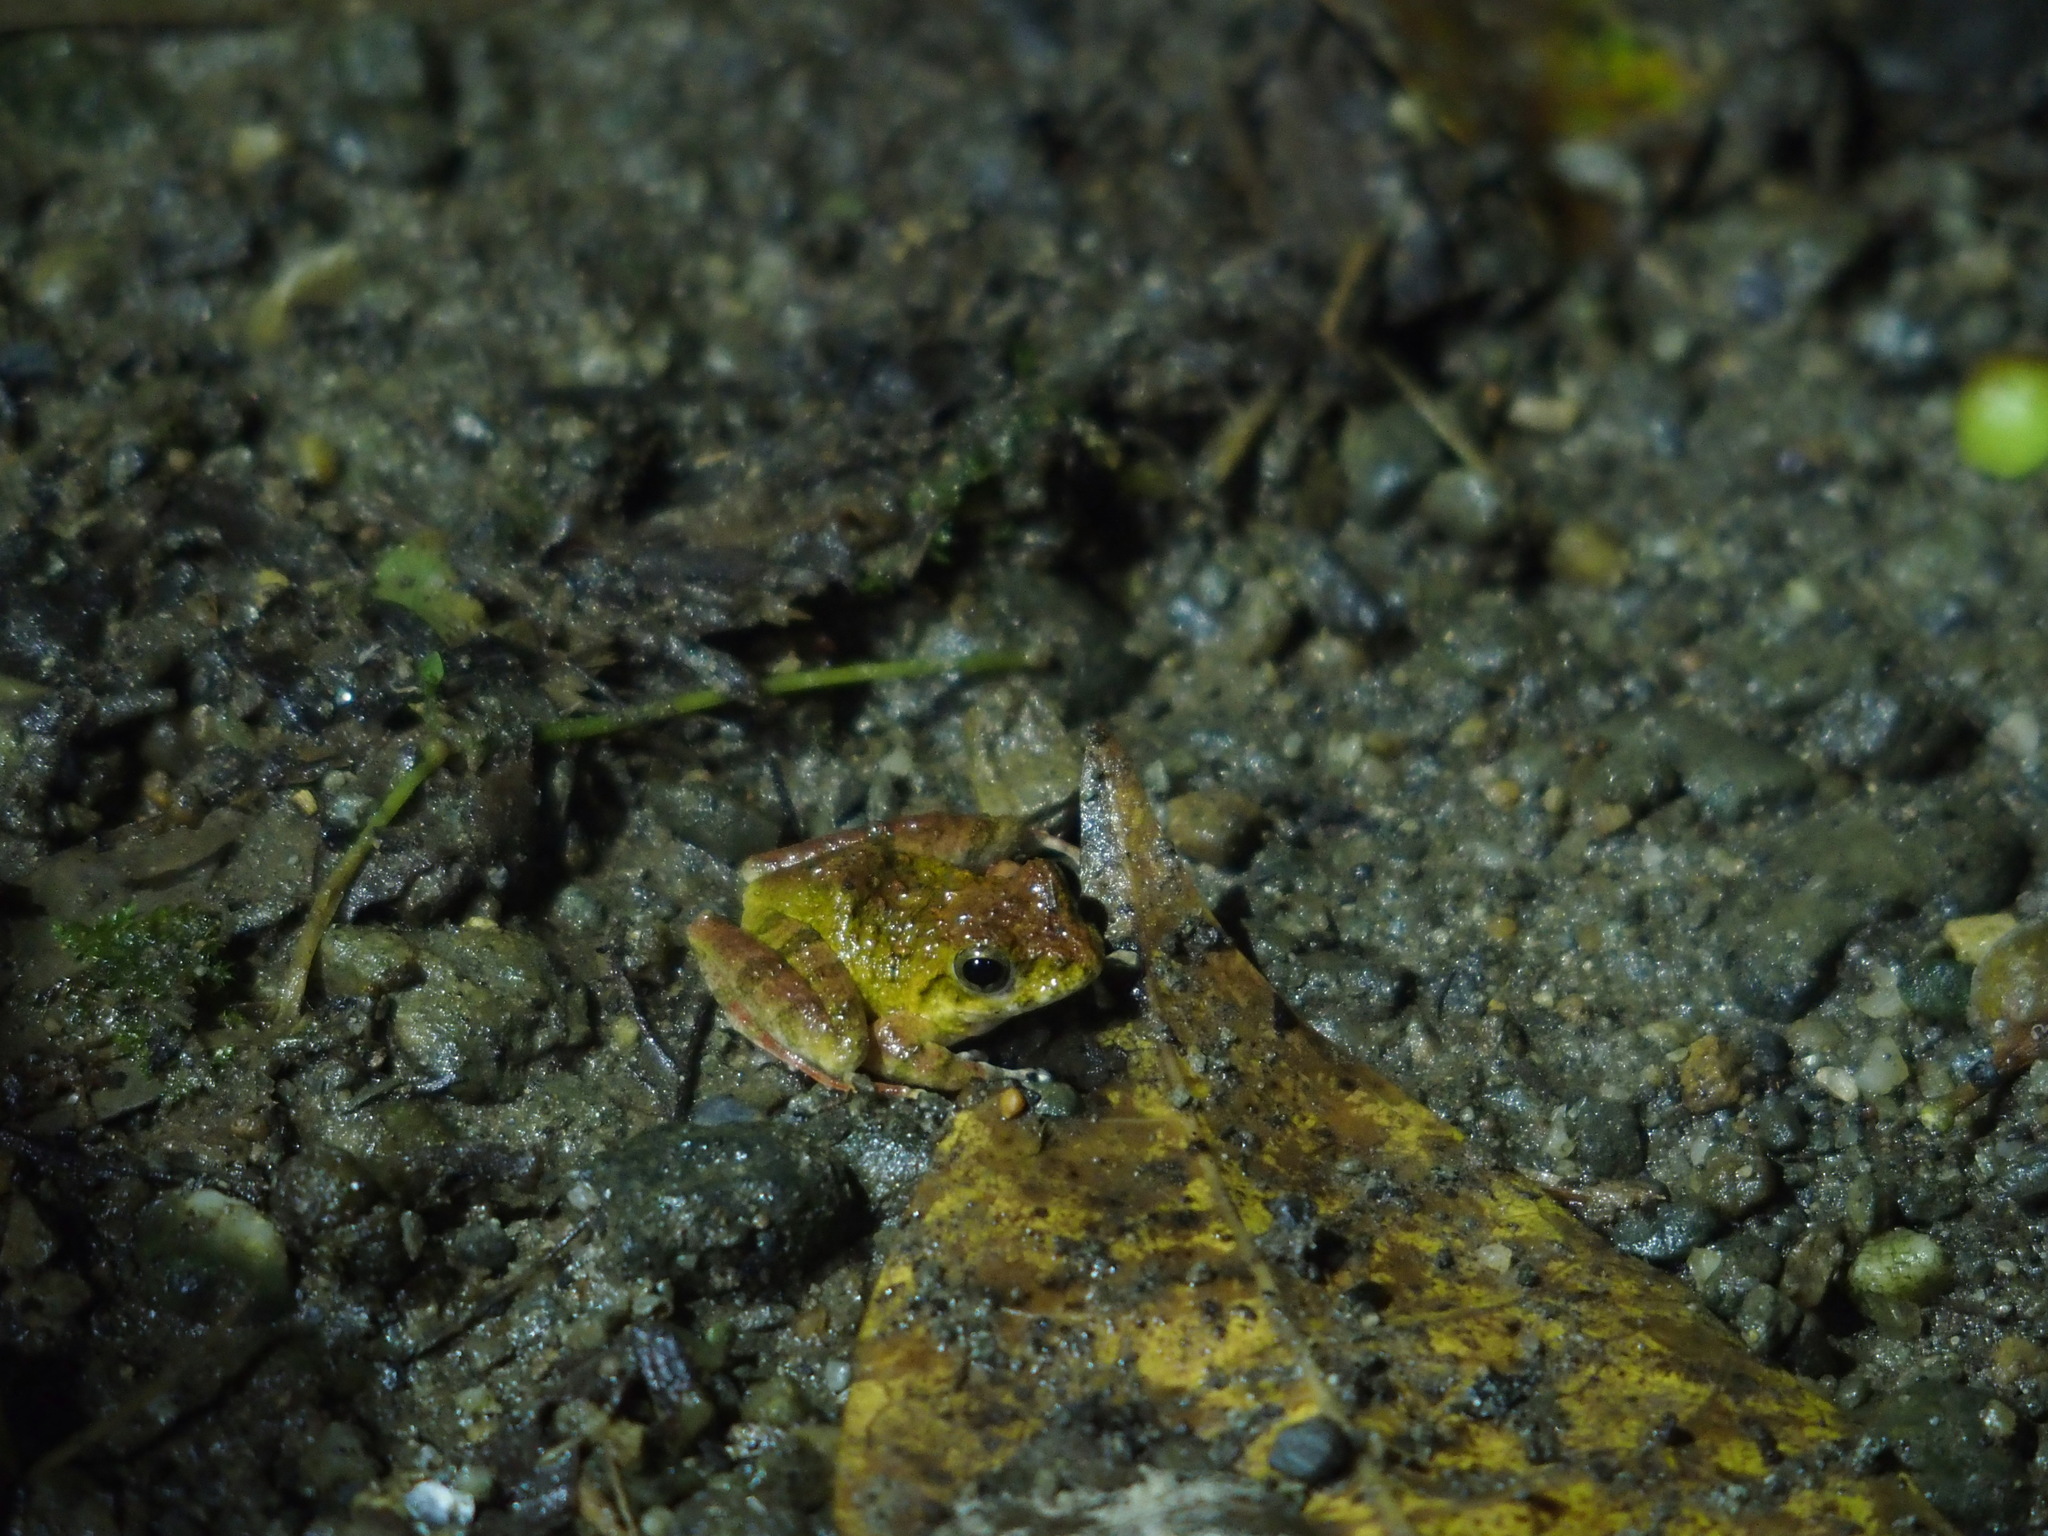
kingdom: Animalia
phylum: Chordata
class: Amphibia
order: Anura
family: Rhacophoridae
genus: Buergeria
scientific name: Buergeria otai
